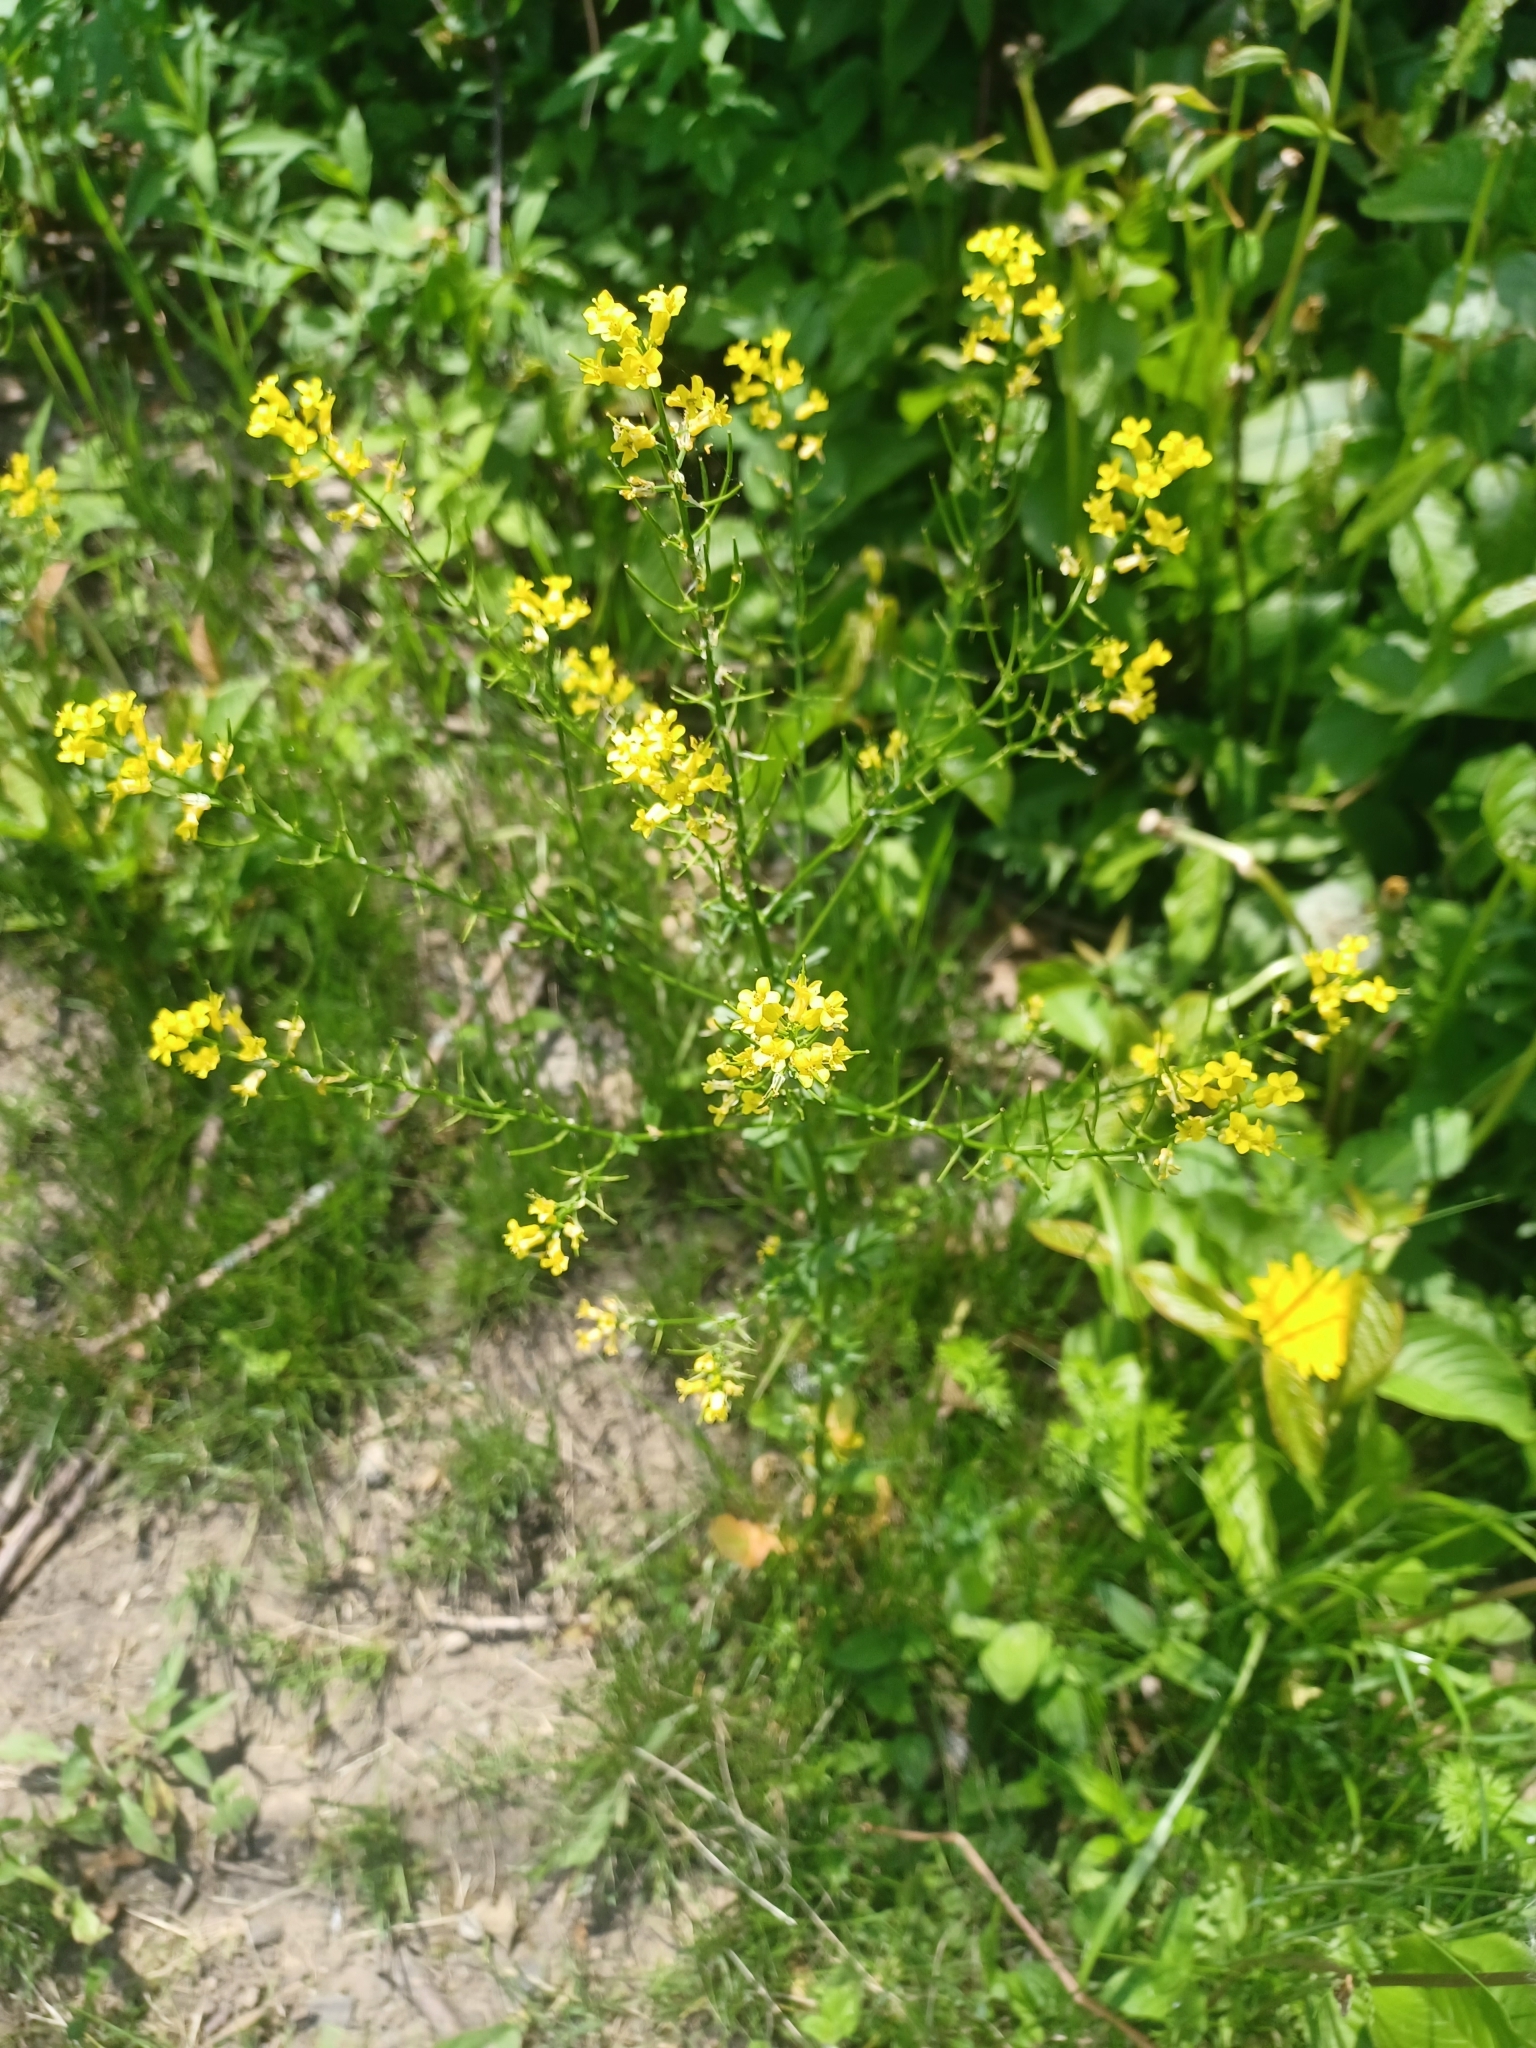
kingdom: Plantae
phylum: Tracheophyta
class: Magnoliopsida
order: Brassicales
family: Brassicaceae
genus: Barbarea
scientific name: Barbarea vulgaris
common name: Cressy-greens
